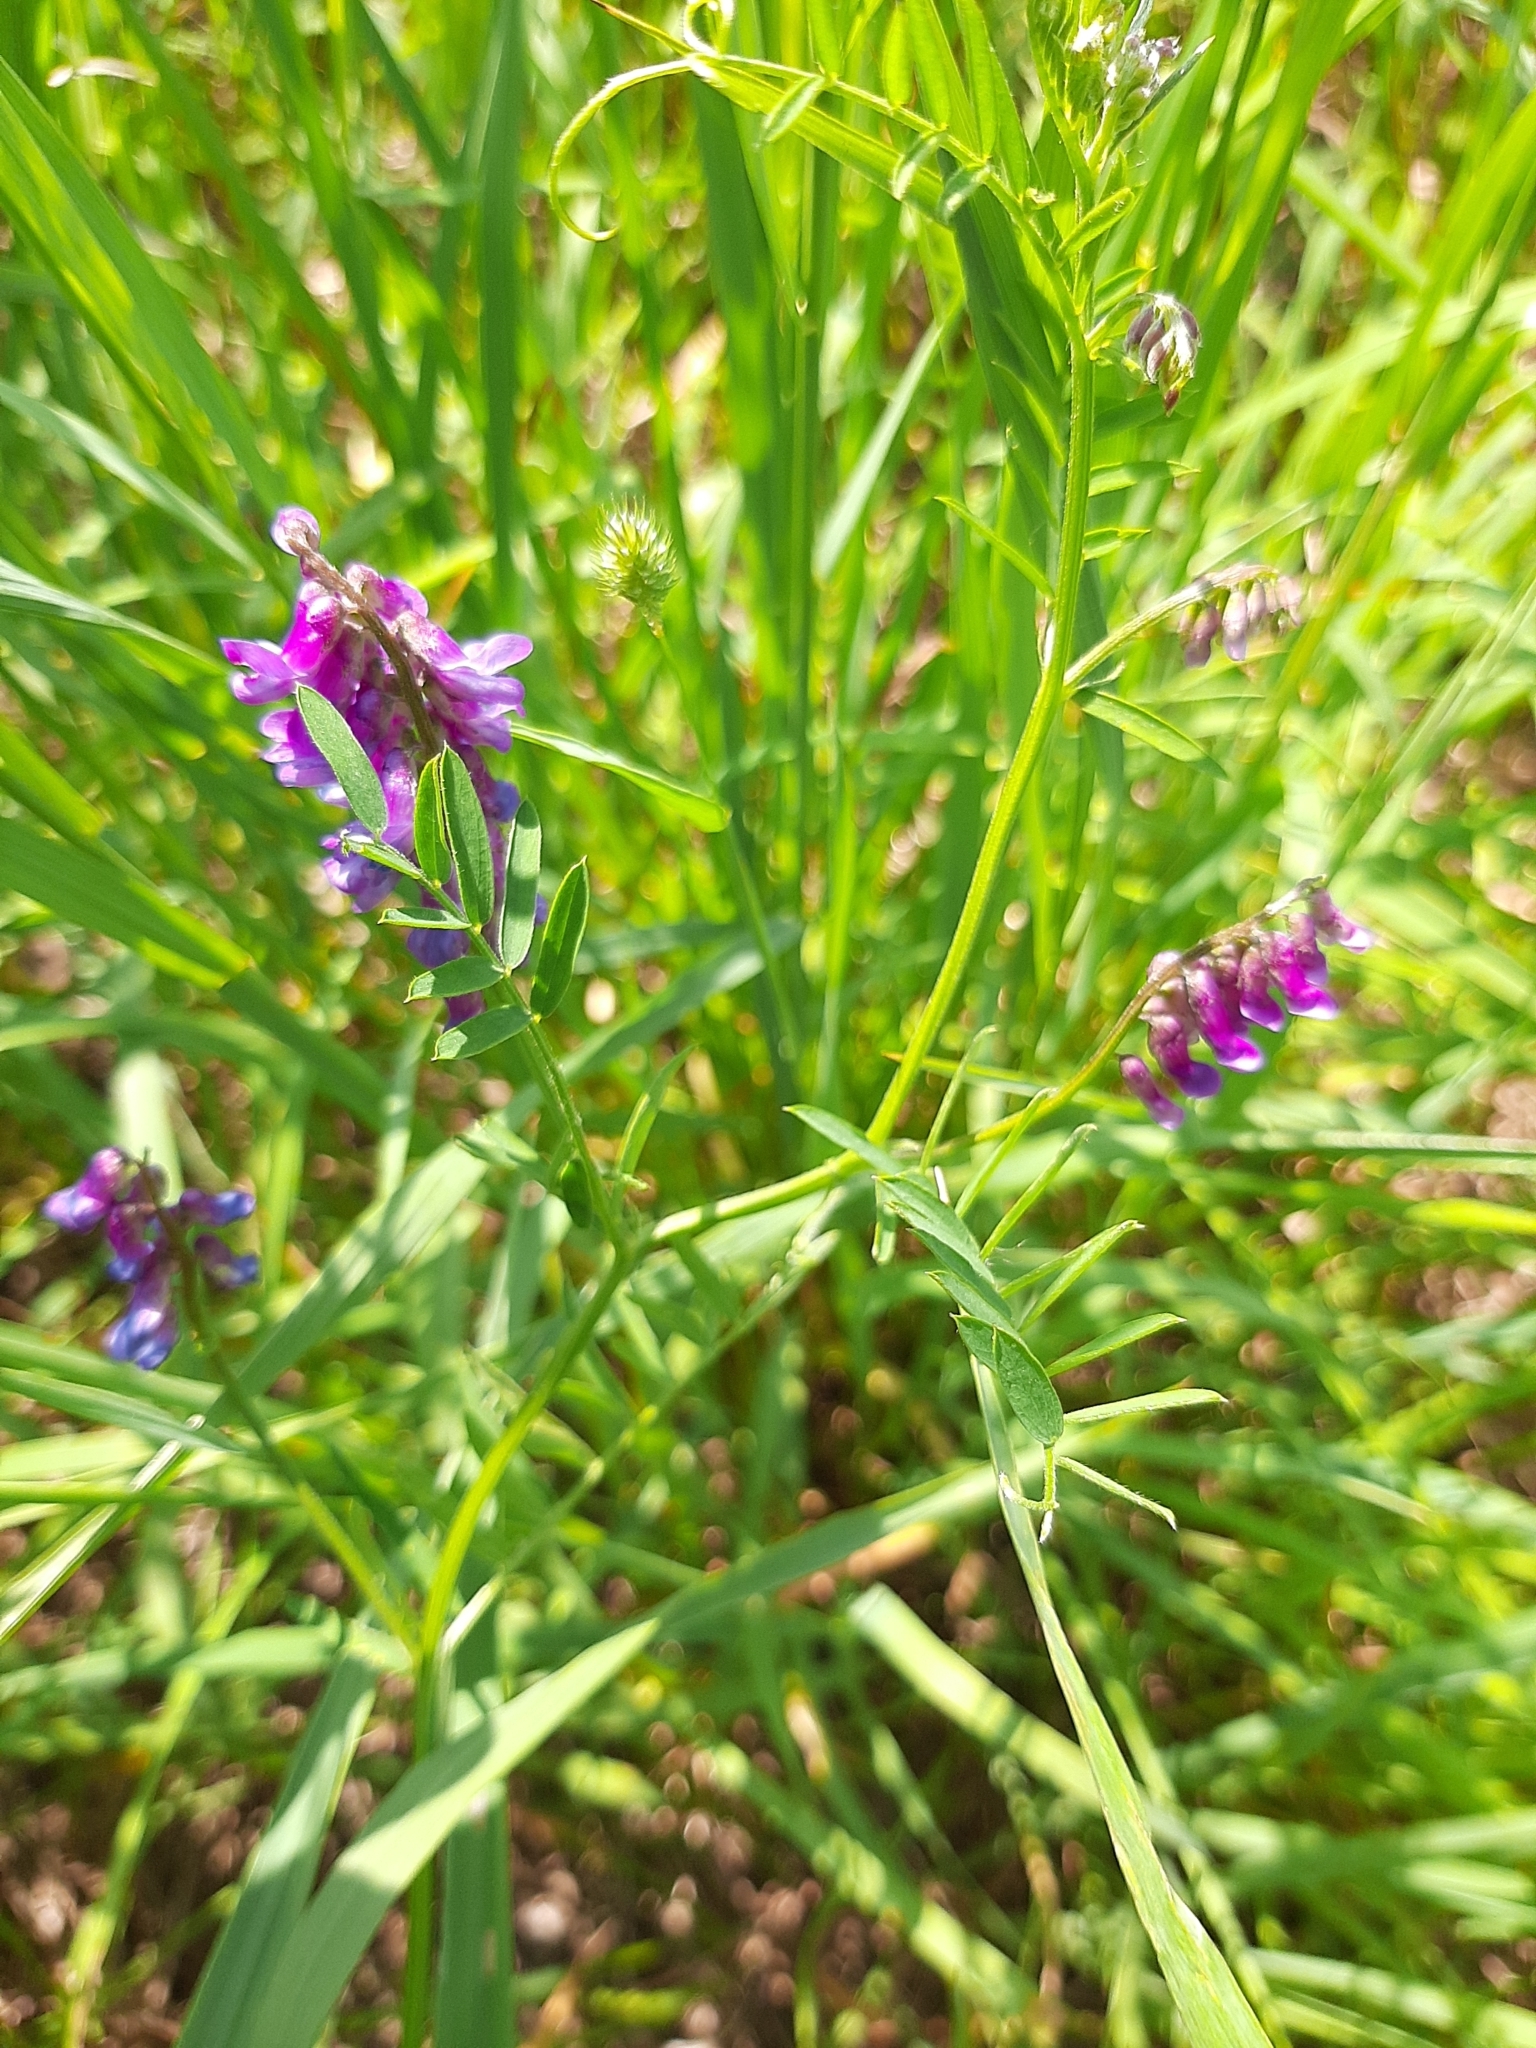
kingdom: Plantae
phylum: Tracheophyta
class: Magnoliopsida
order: Fabales
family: Fabaceae
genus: Vicia
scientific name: Vicia cracca
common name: Bird vetch
